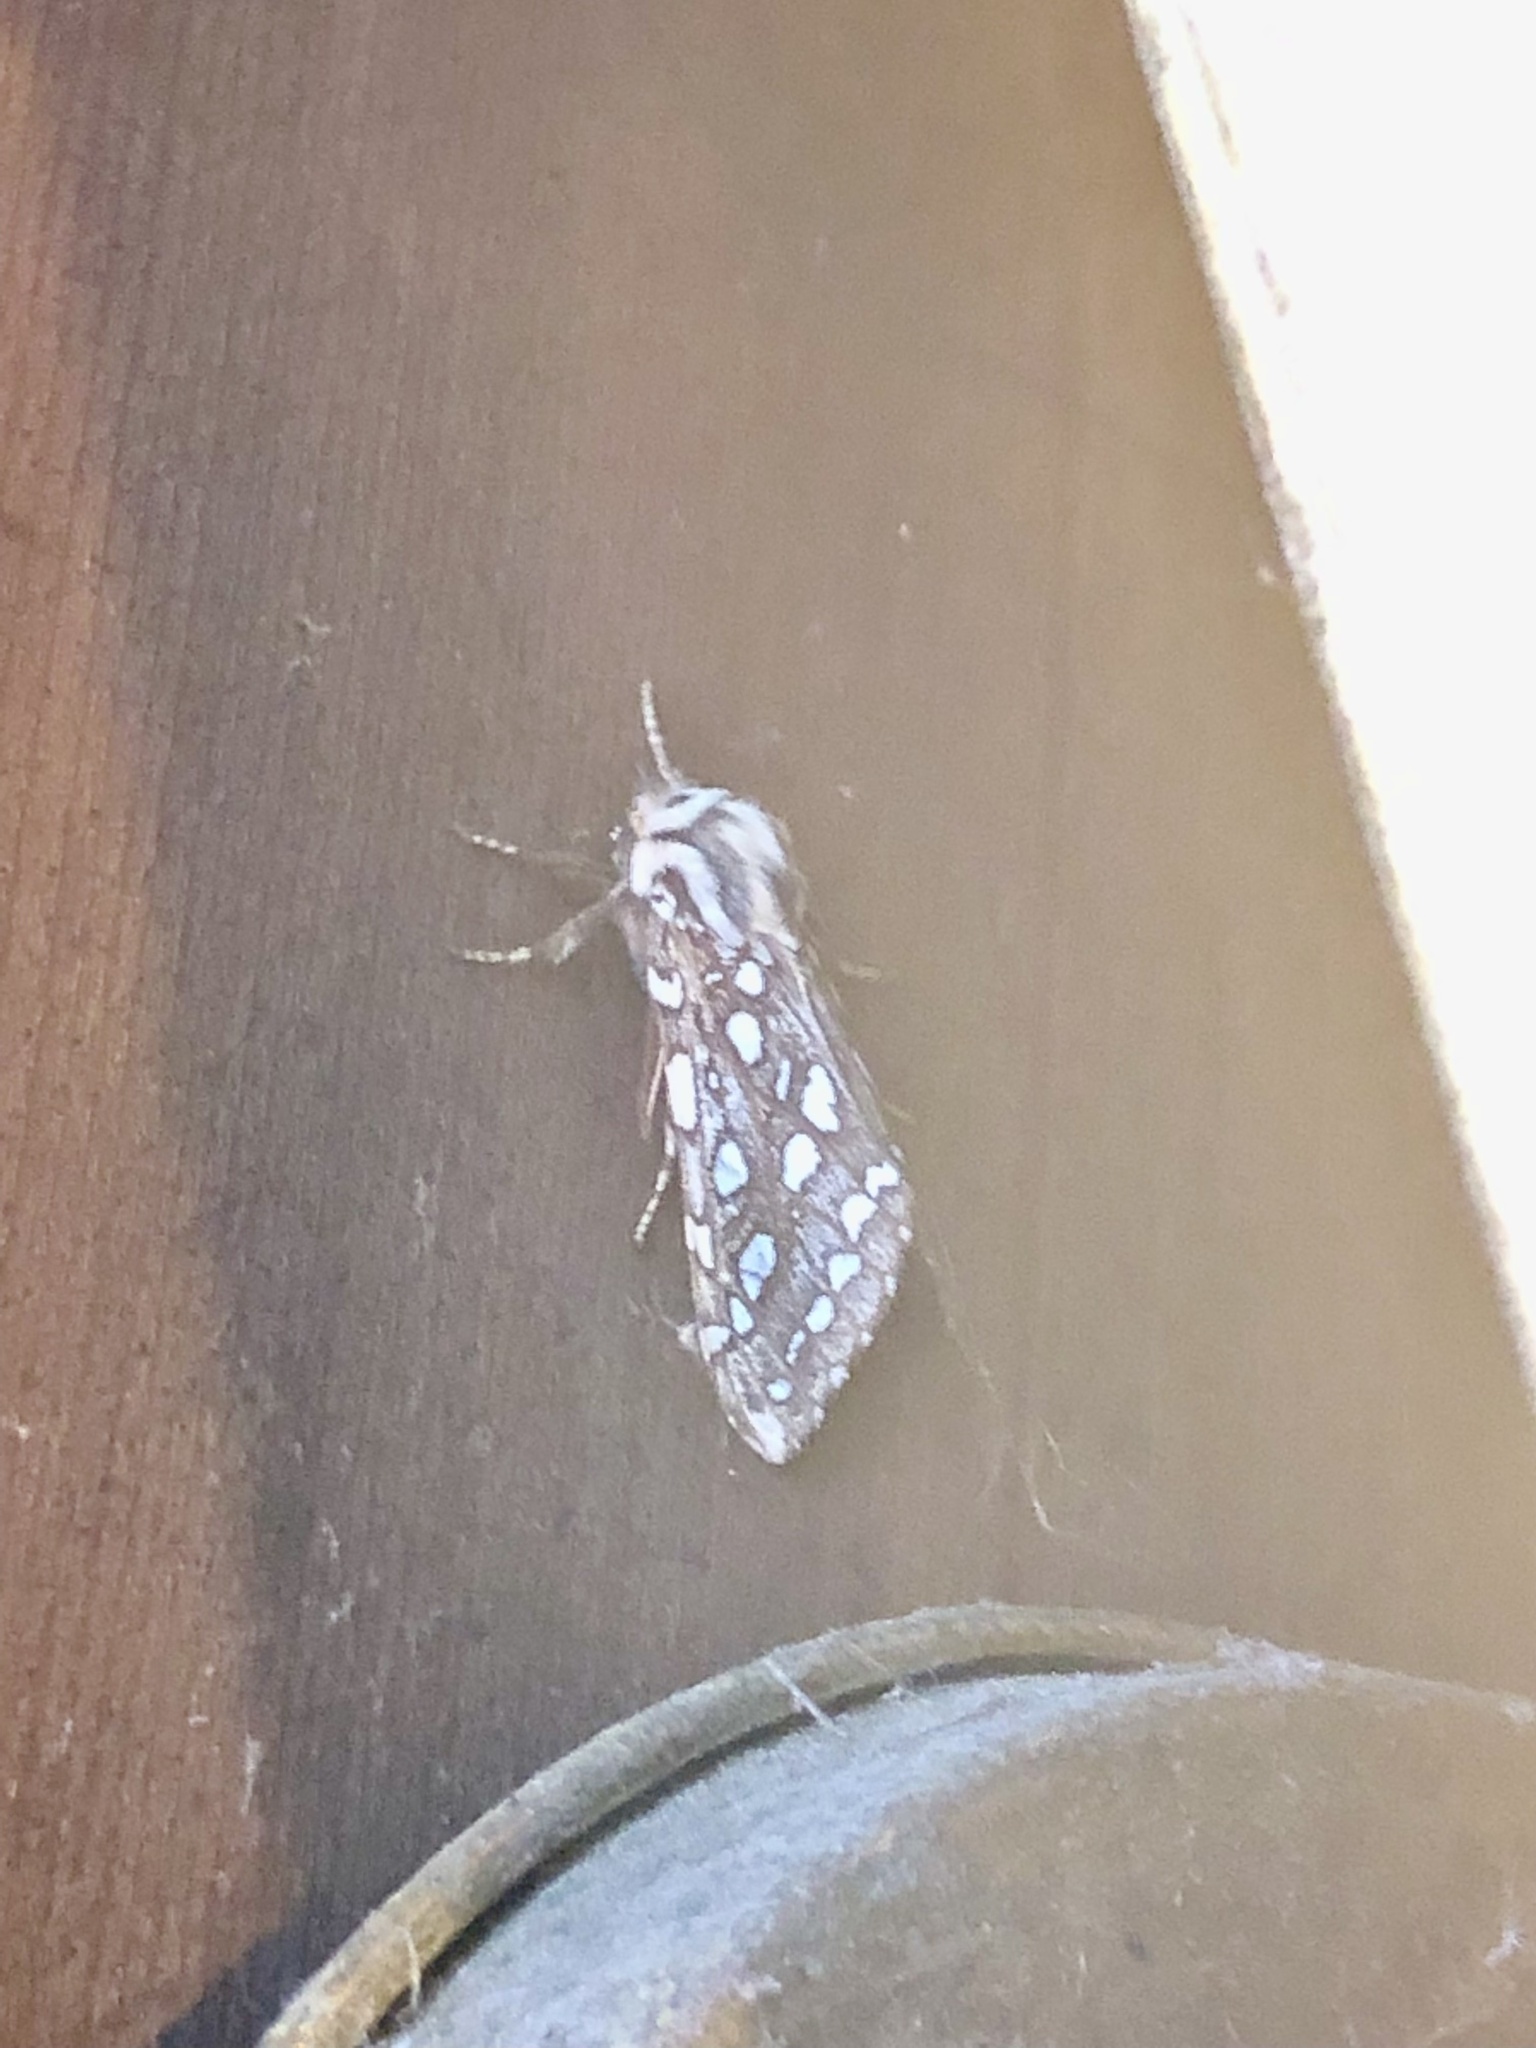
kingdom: Animalia
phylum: Arthropoda
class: Insecta
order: Lepidoptera
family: Erebidae
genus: Lophocampa
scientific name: Lophocampa argentata
